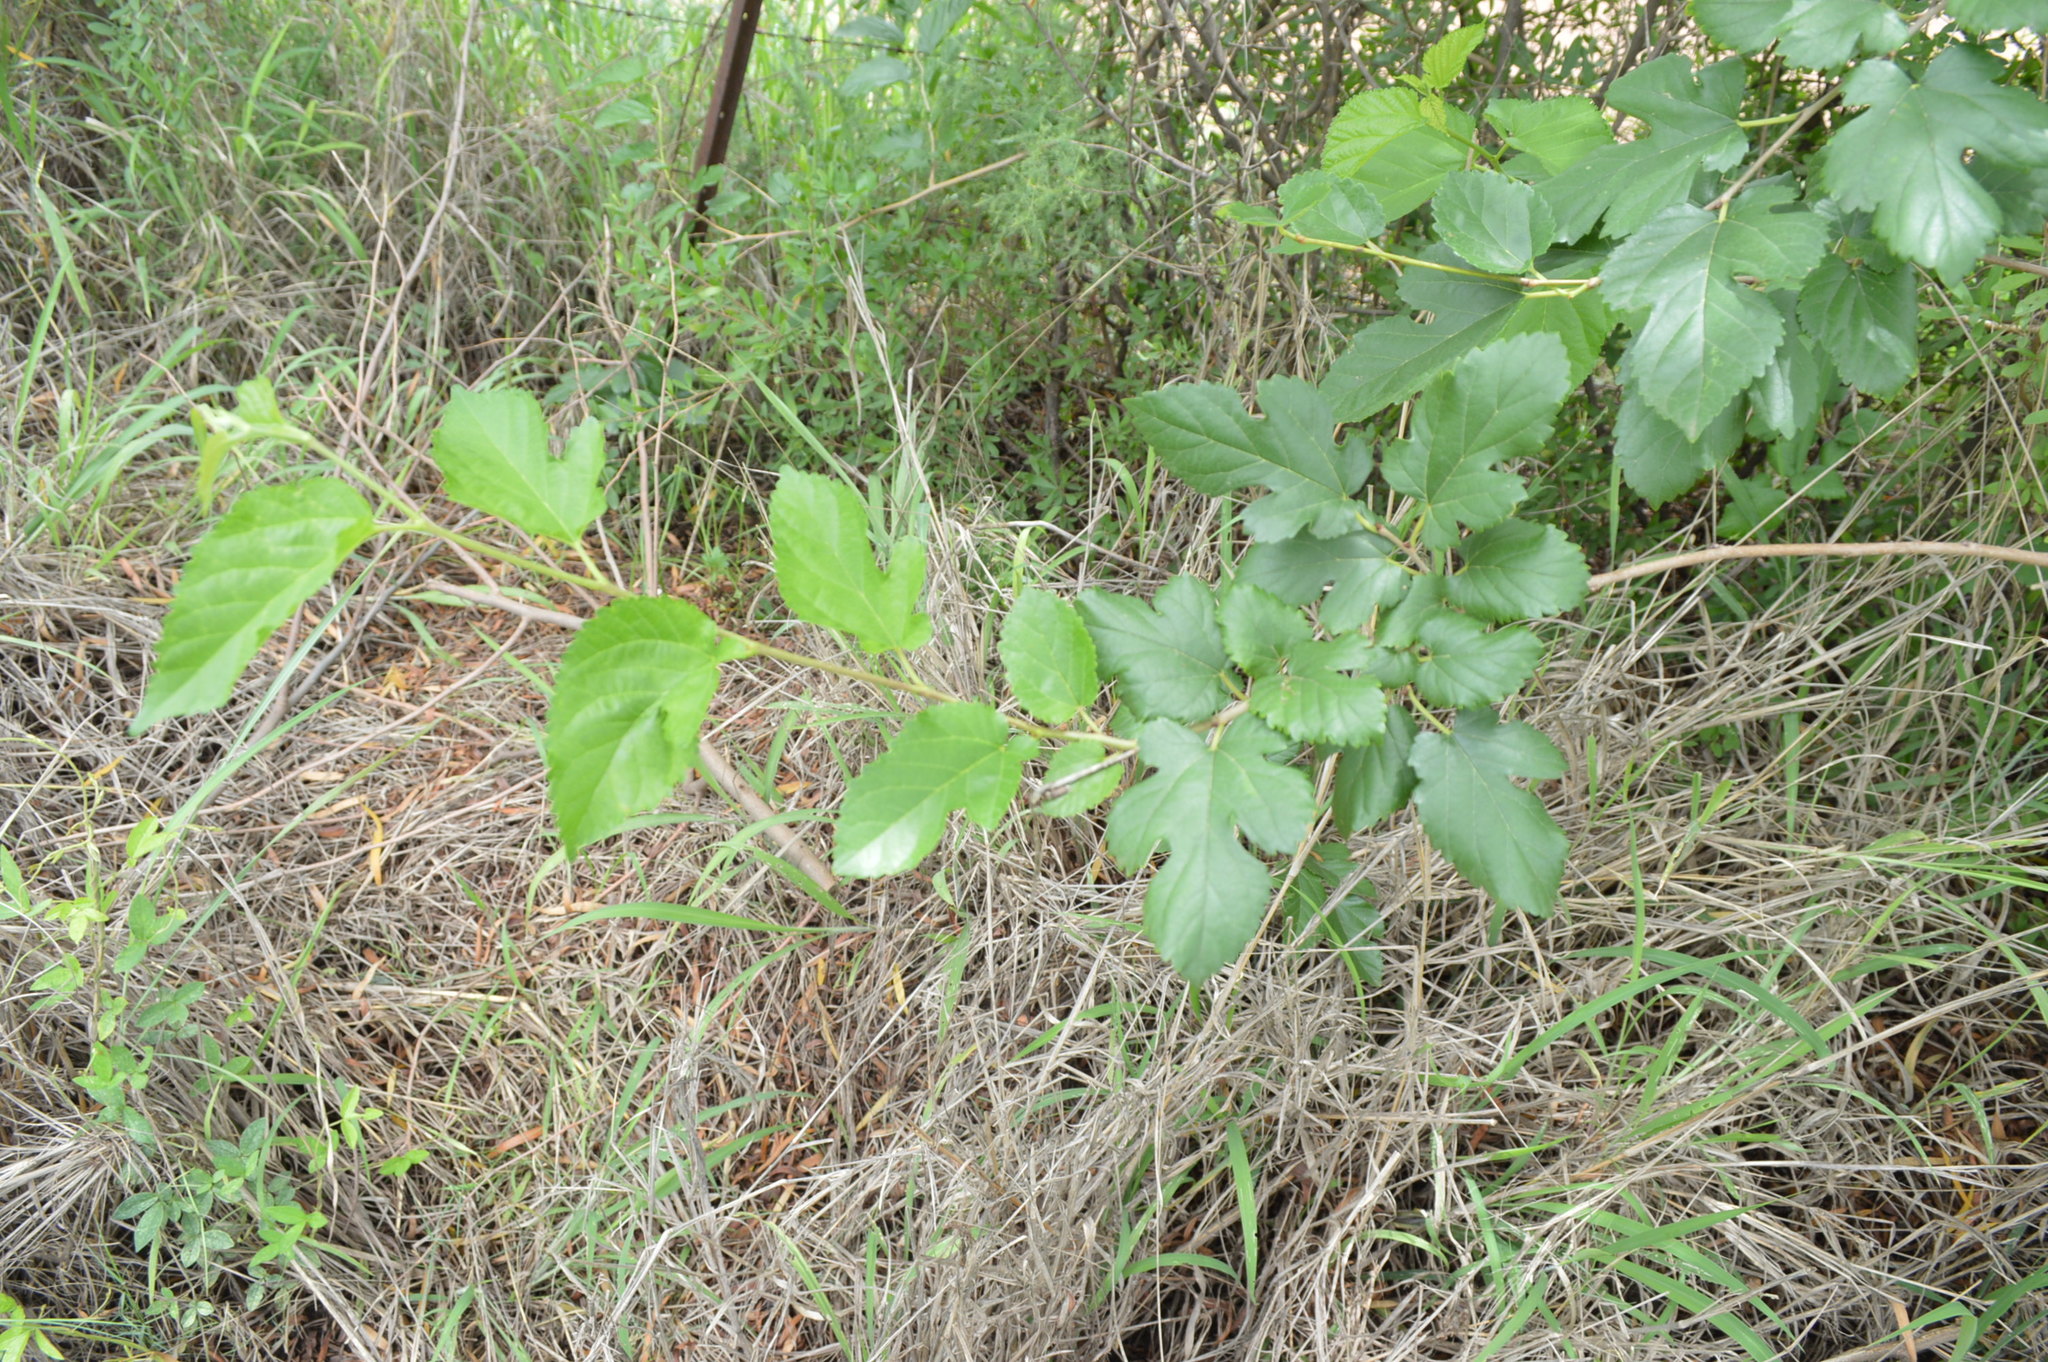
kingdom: Plantae
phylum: Tracheophyta
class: Magnoliopsida
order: Rosales
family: Moraceae
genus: Morus
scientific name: Morus alba
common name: White mulberry
